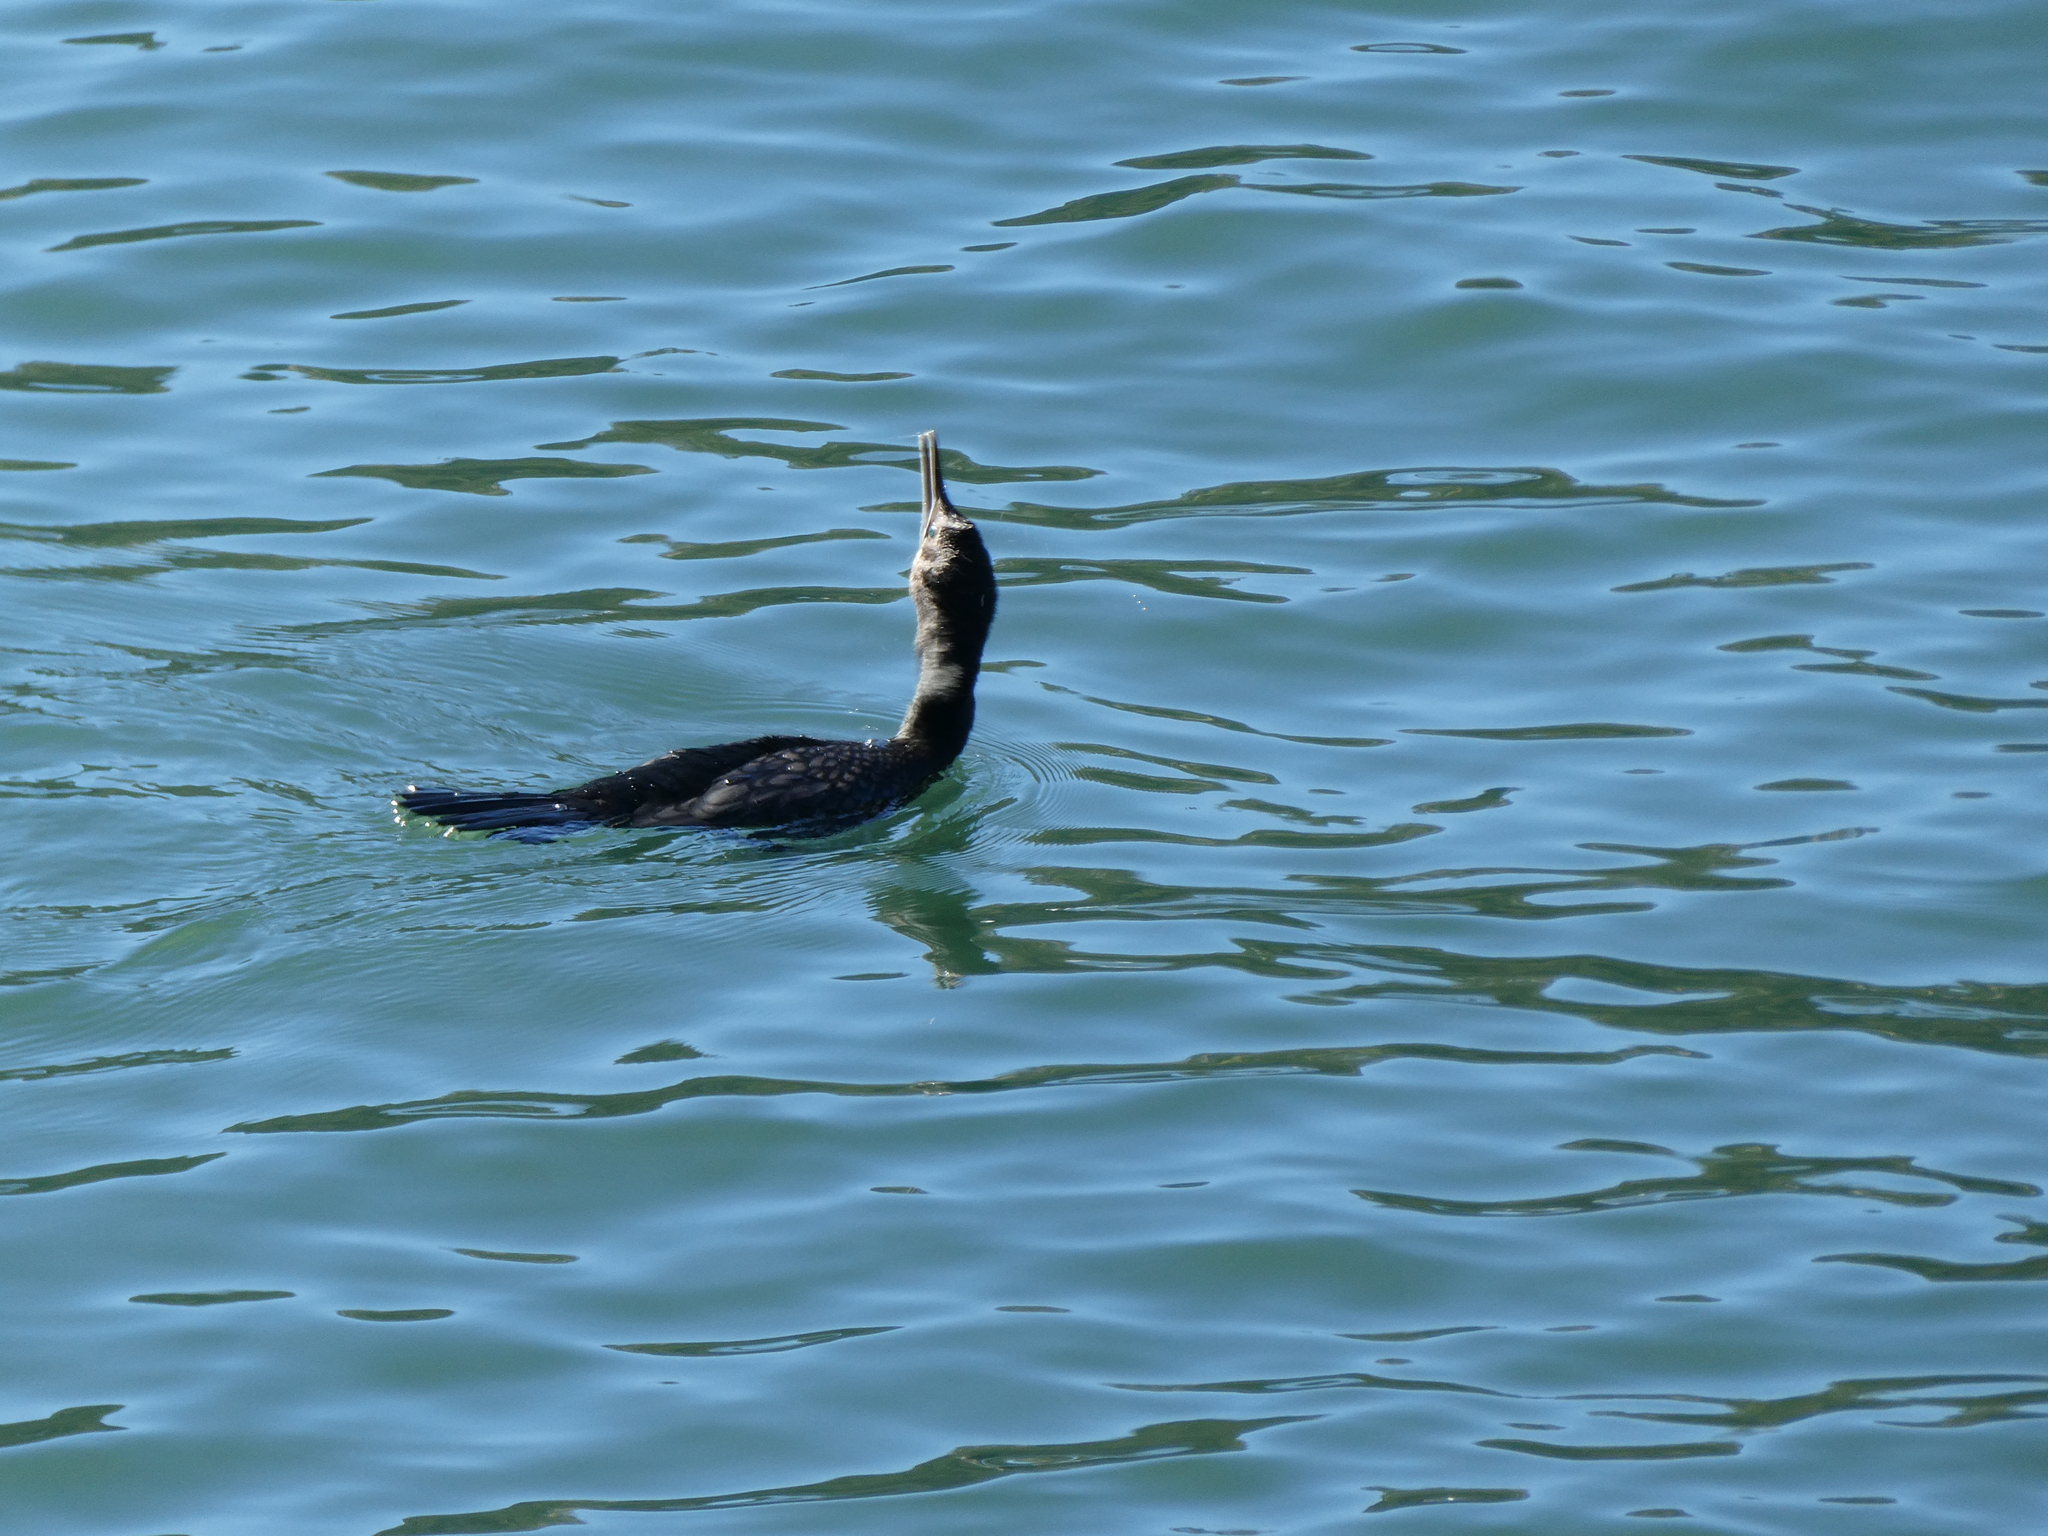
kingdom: Animalia
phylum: Chordata
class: Aves
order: Suliformes
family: Phalacrocoracidae
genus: Phalacrocorax
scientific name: Phalacrocorax sulcirostris
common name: Little black cormorant
